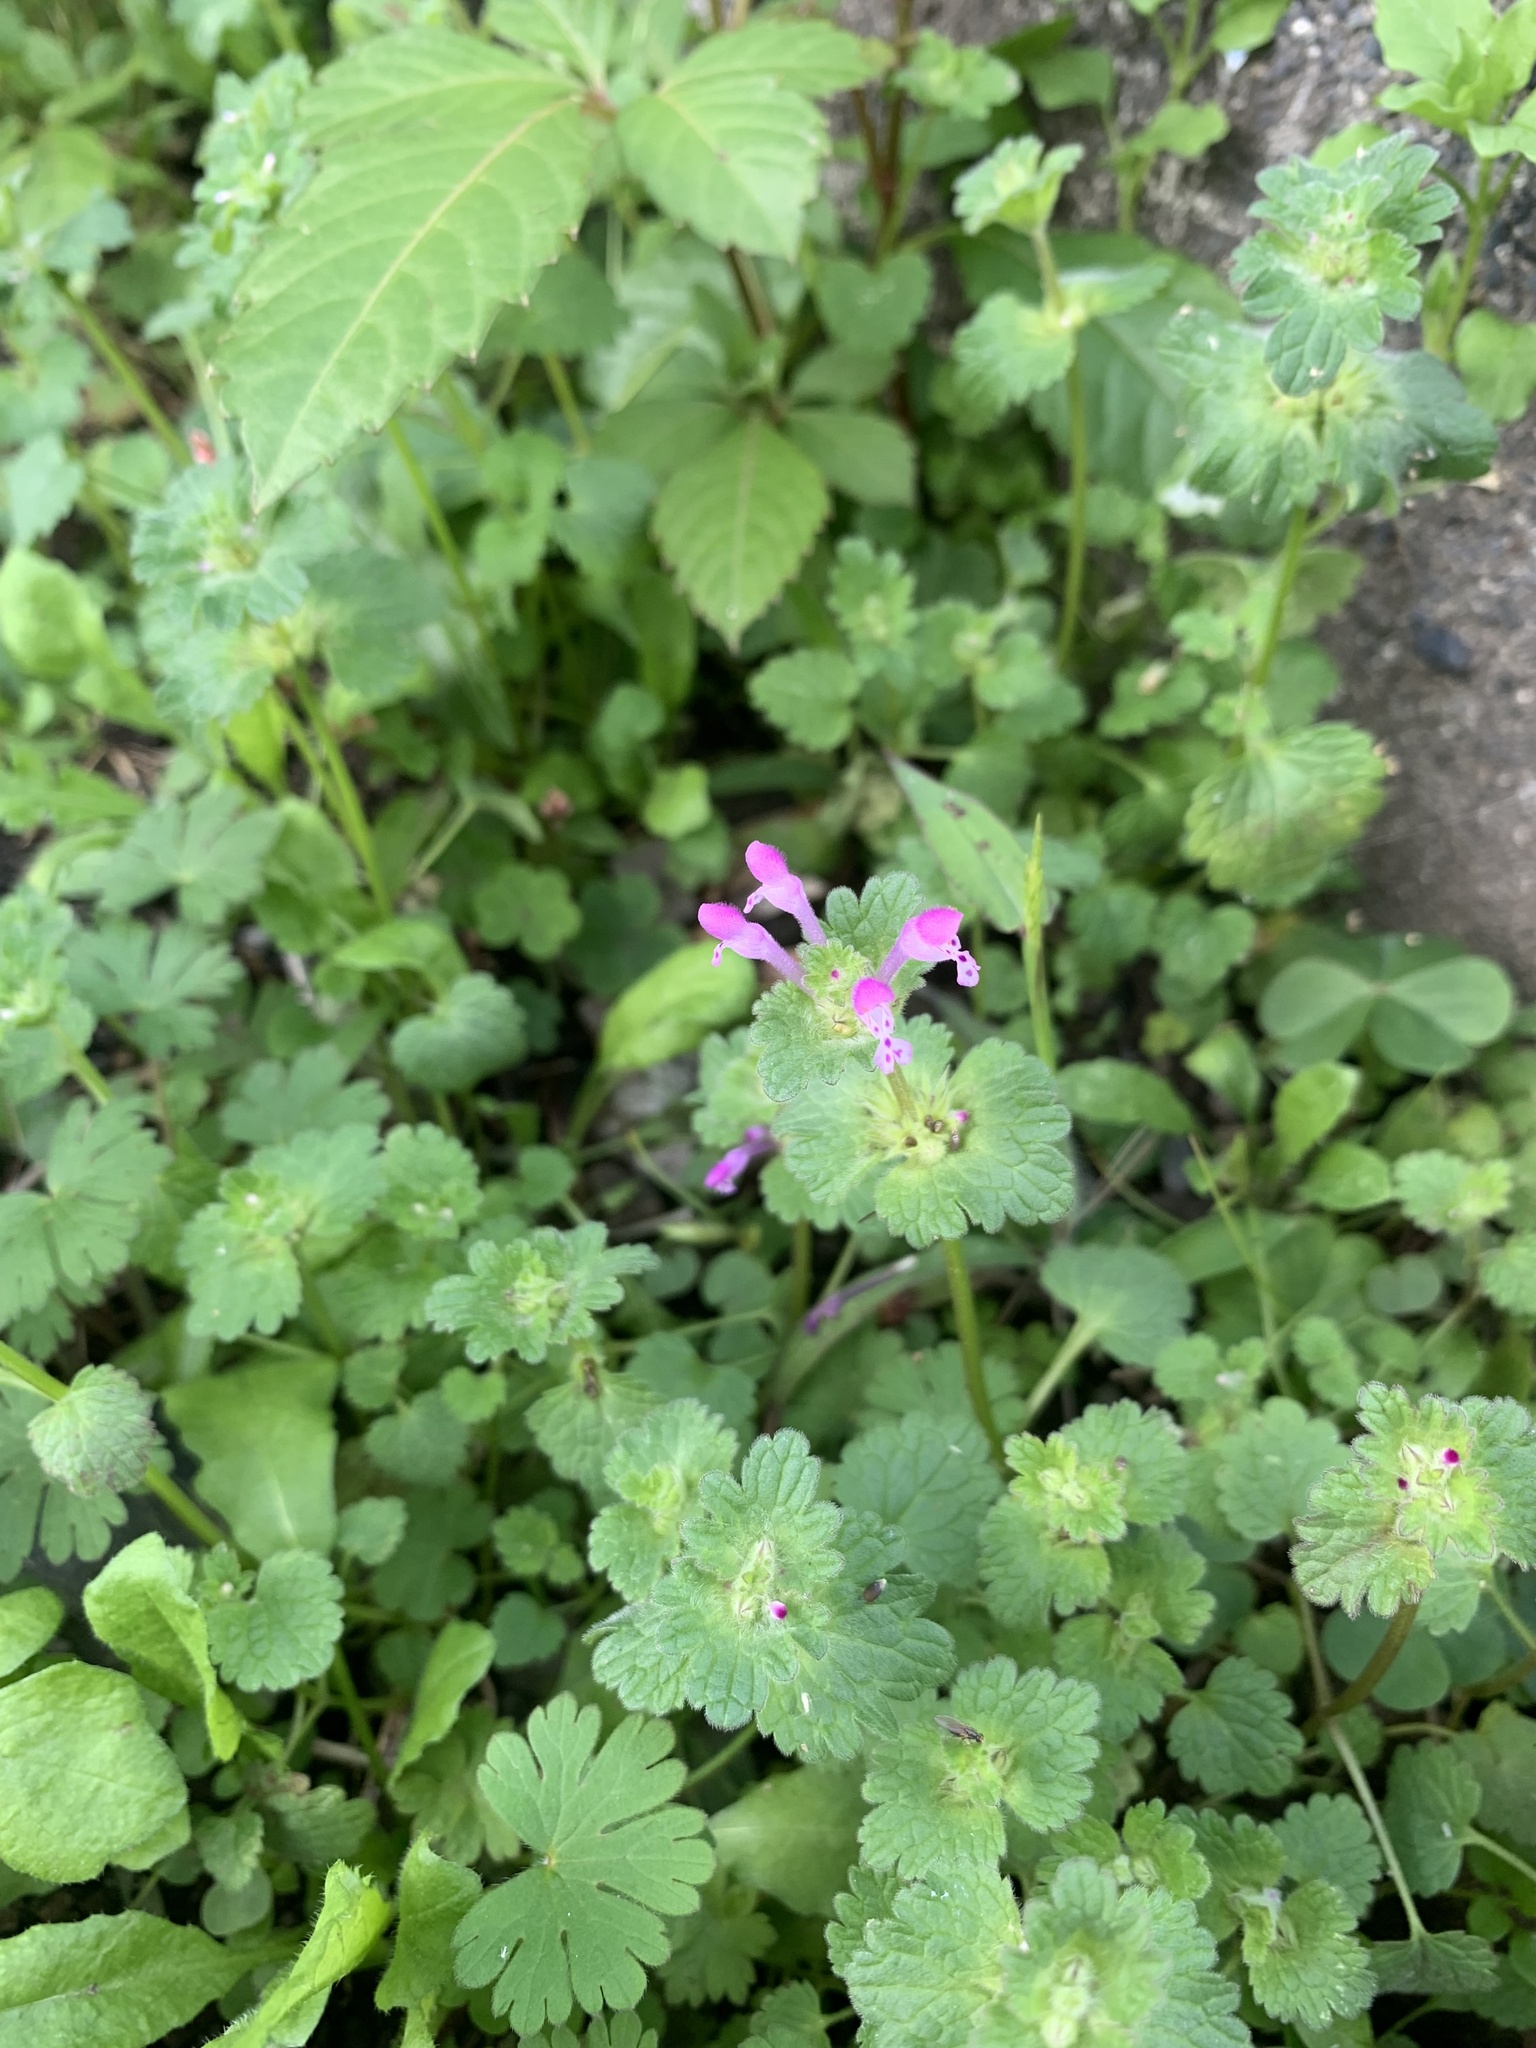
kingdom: Plantae
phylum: Tracheophyta
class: Magnoliopsida
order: Lamiales
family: Lamiaceae
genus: Lamium
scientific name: Lamium amplexicaule
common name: Henbit dead-nettle
